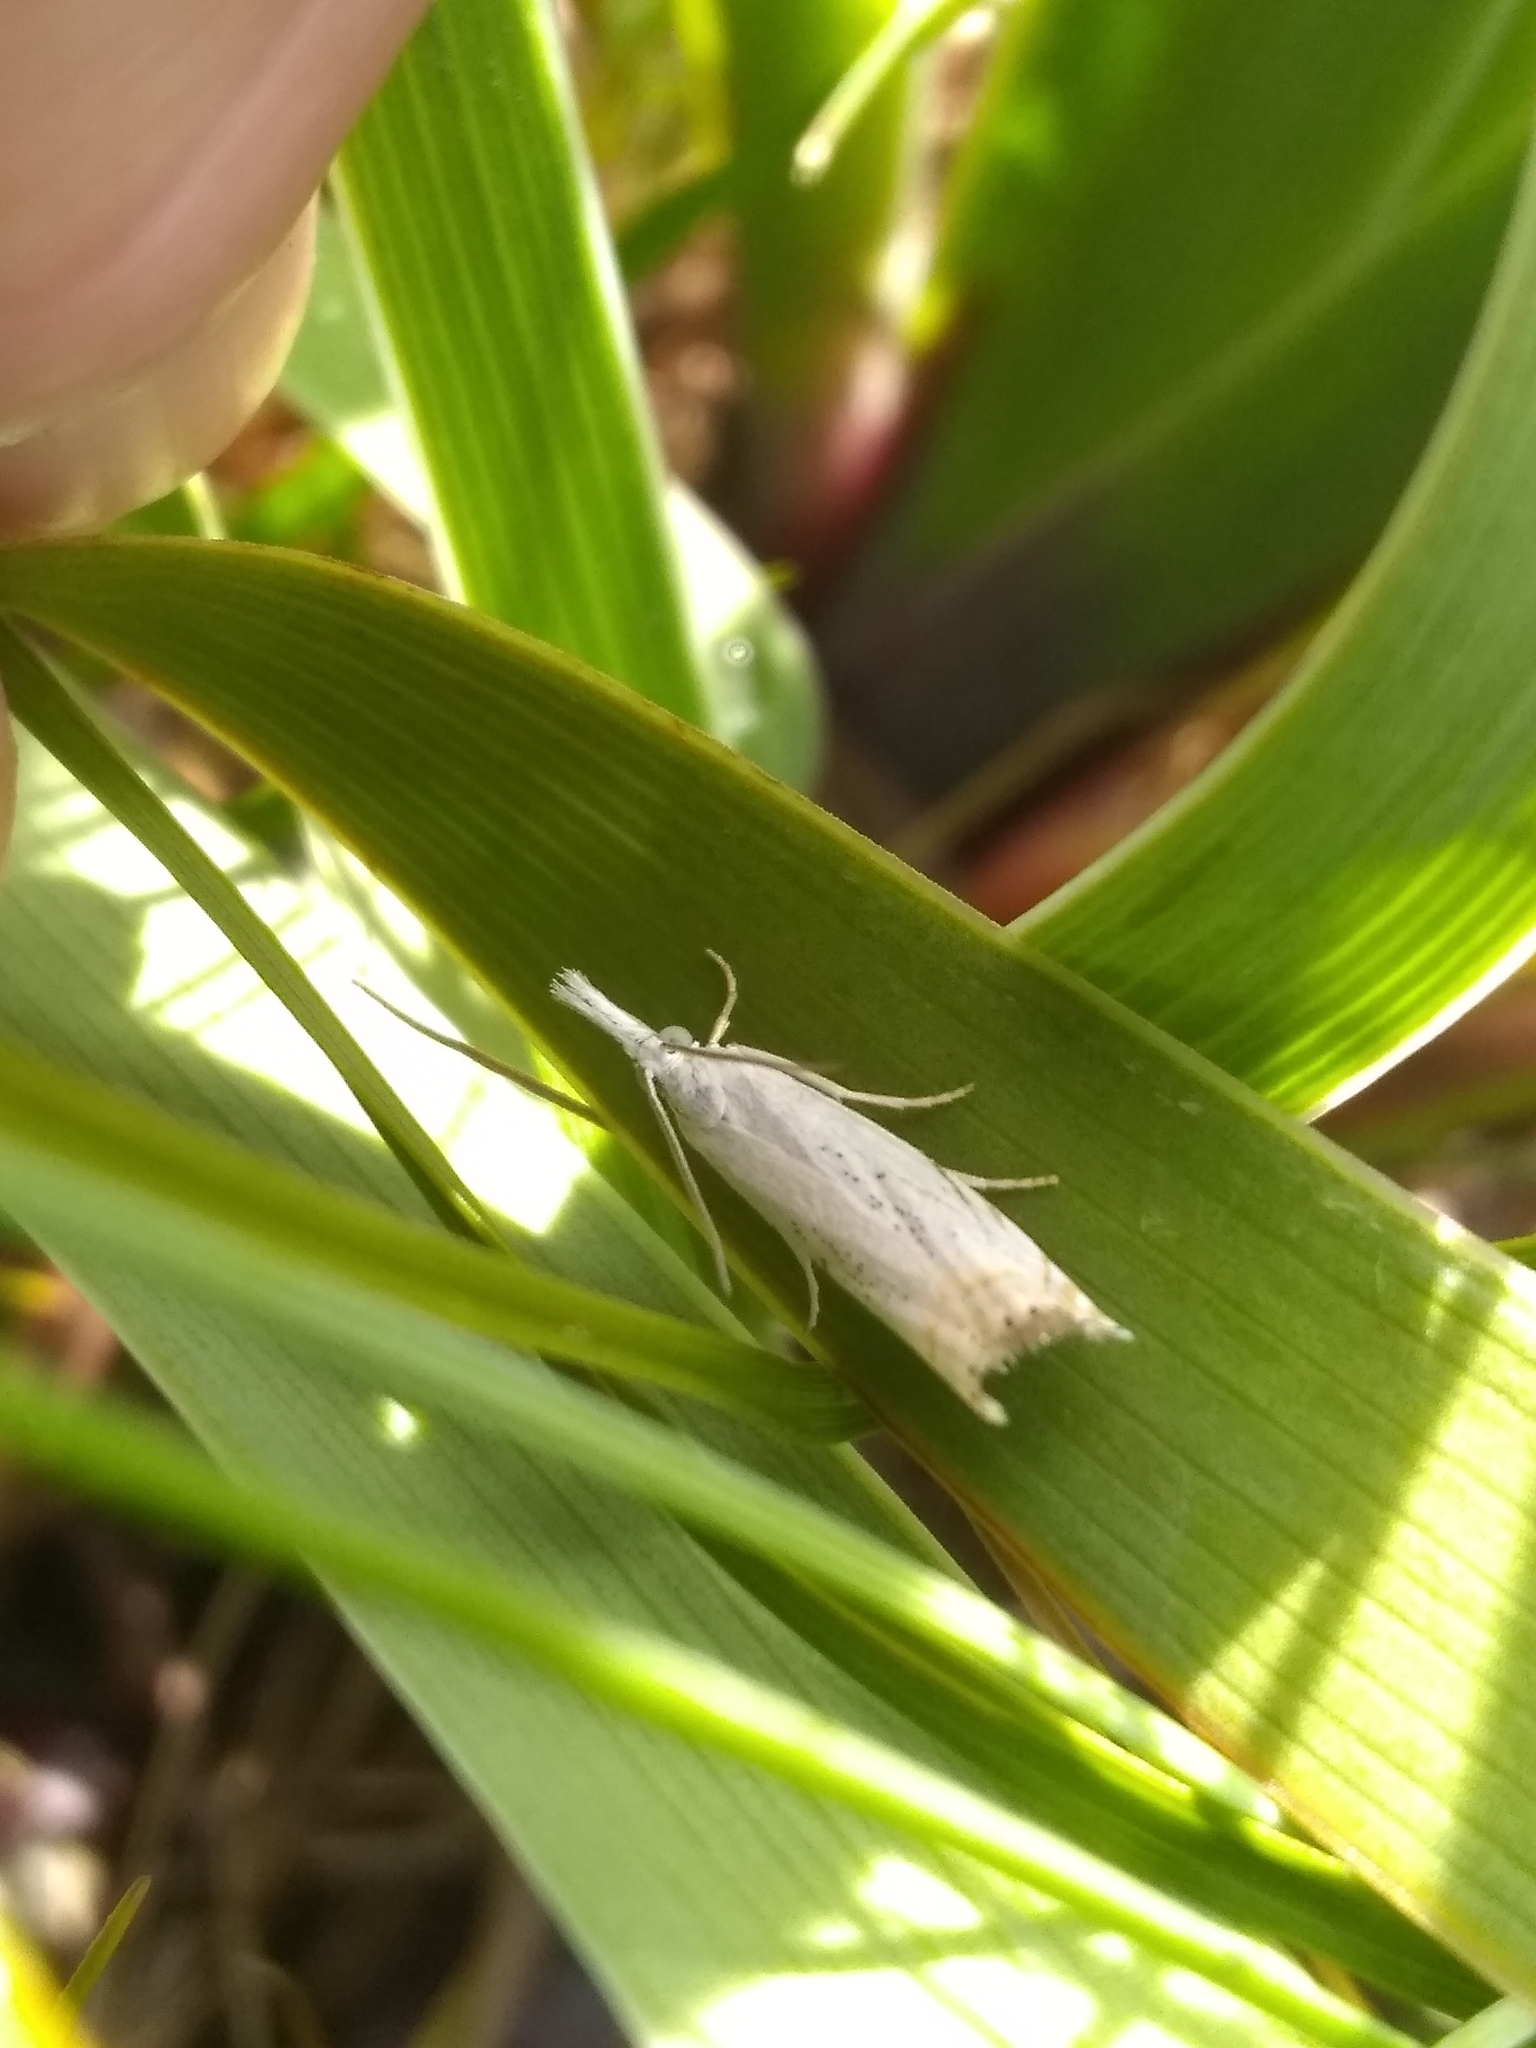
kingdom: Animalia
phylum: Arthropoda
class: Insecta
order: Lepidoptera
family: Crambidae
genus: Crambus
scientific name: Crambus albellus
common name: Small white grass-veneer
